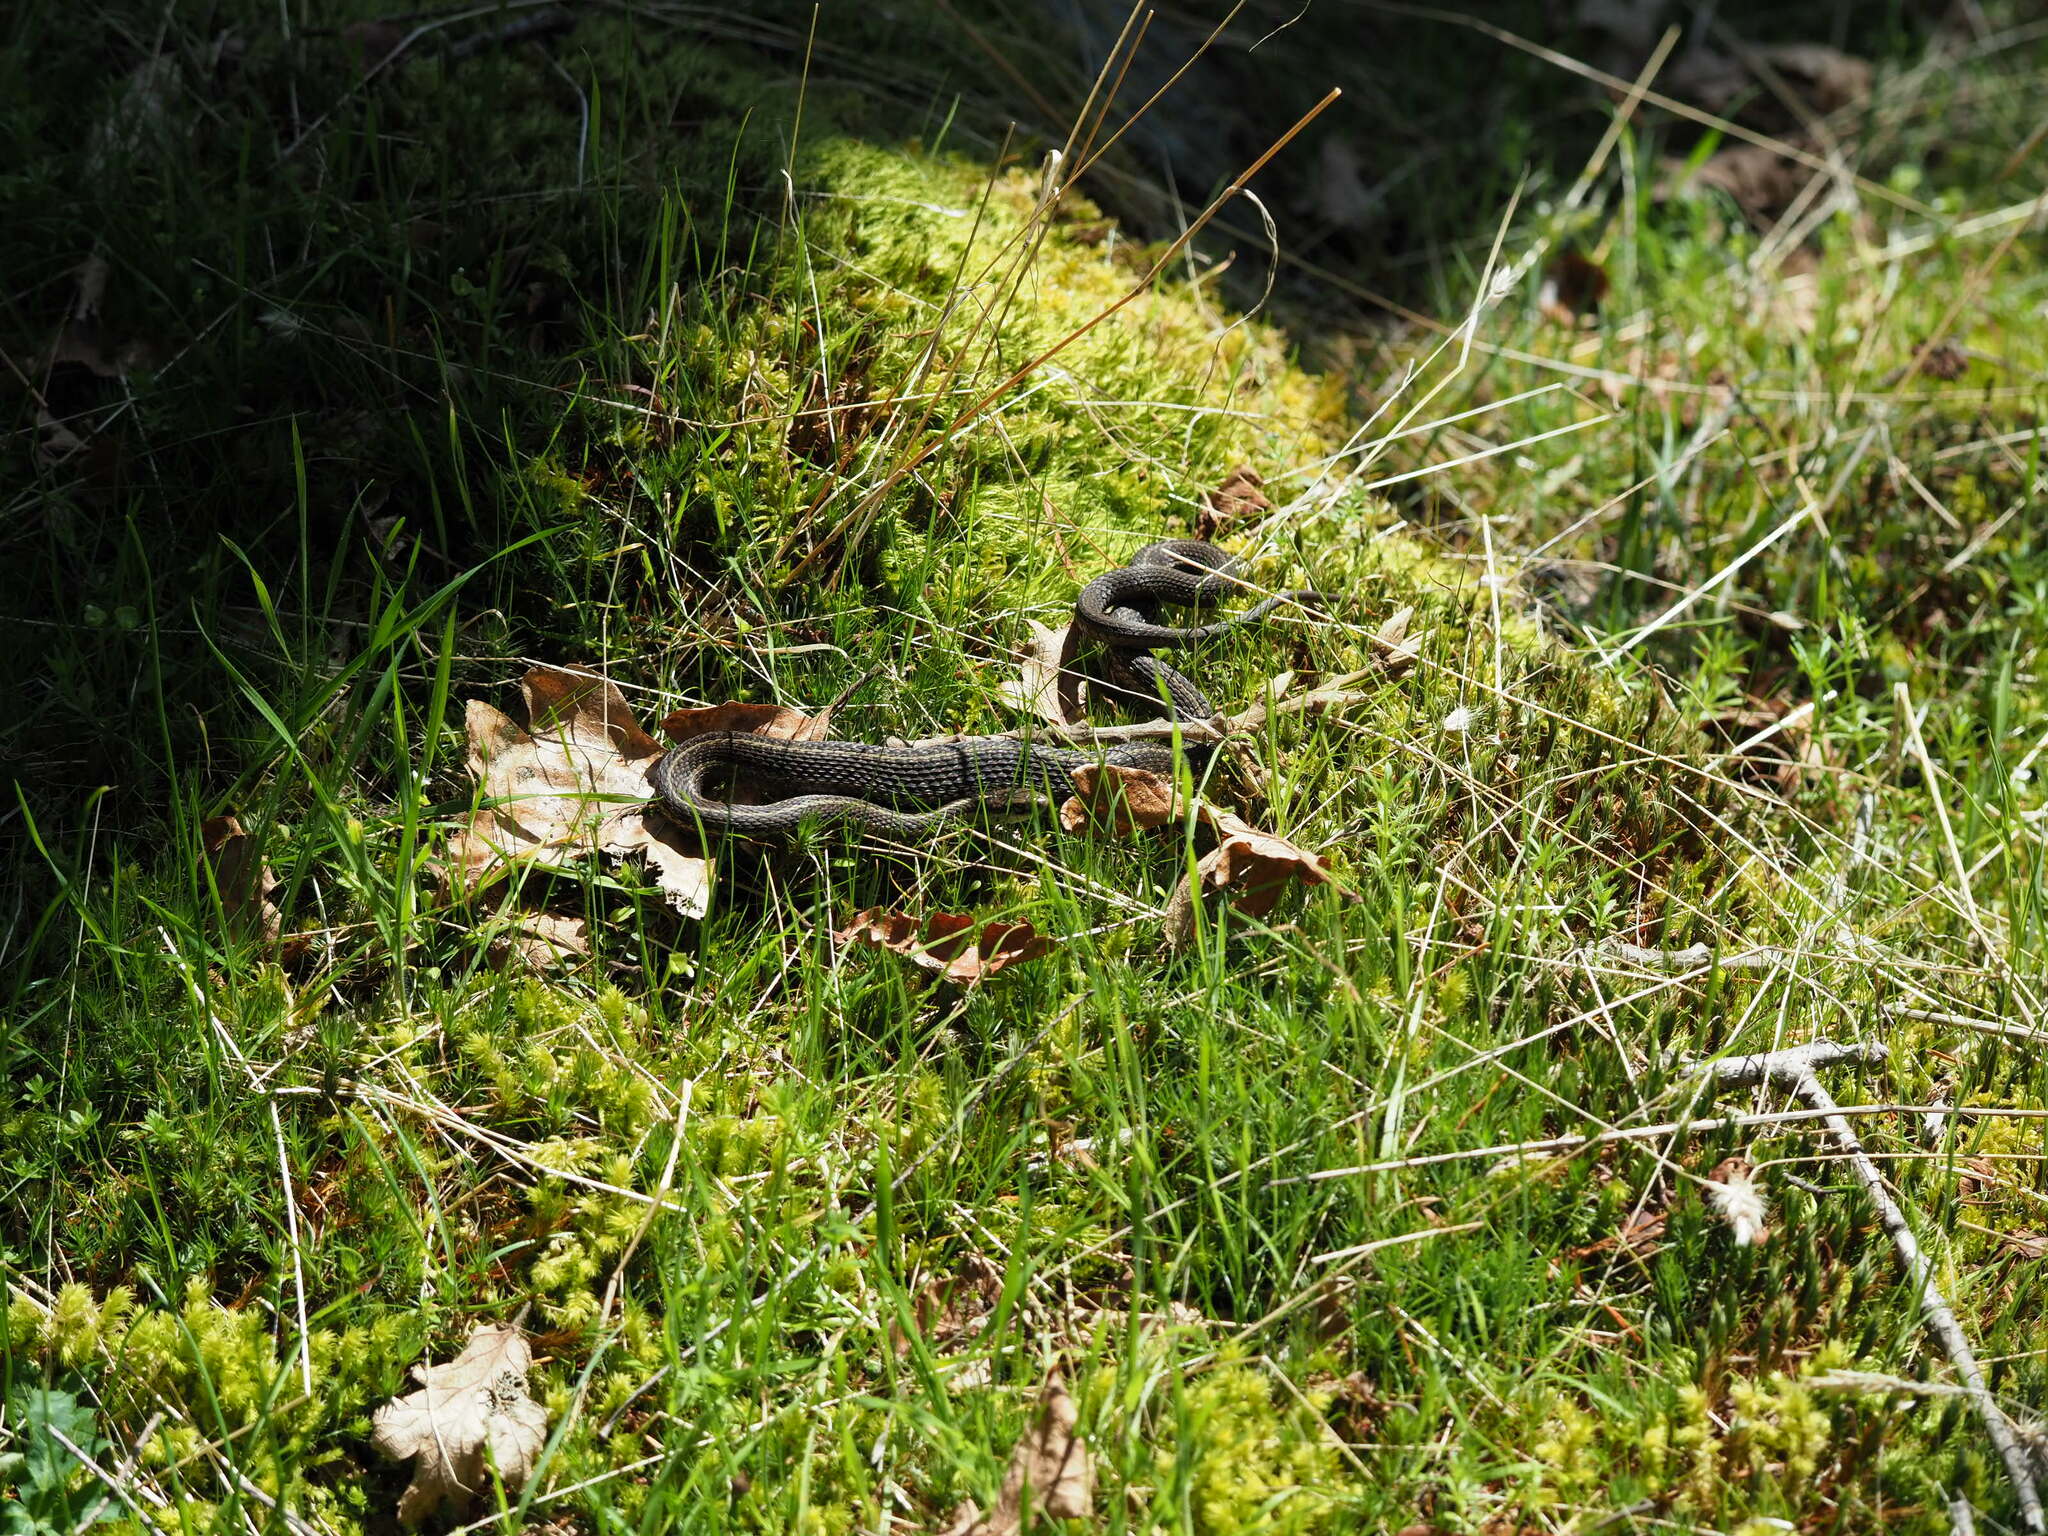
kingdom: Animalia
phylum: Chordata
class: Squamata
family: Colubridae
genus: Thamnophis
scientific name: Thamnophis ordinoides
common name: Northwestern garter snake
